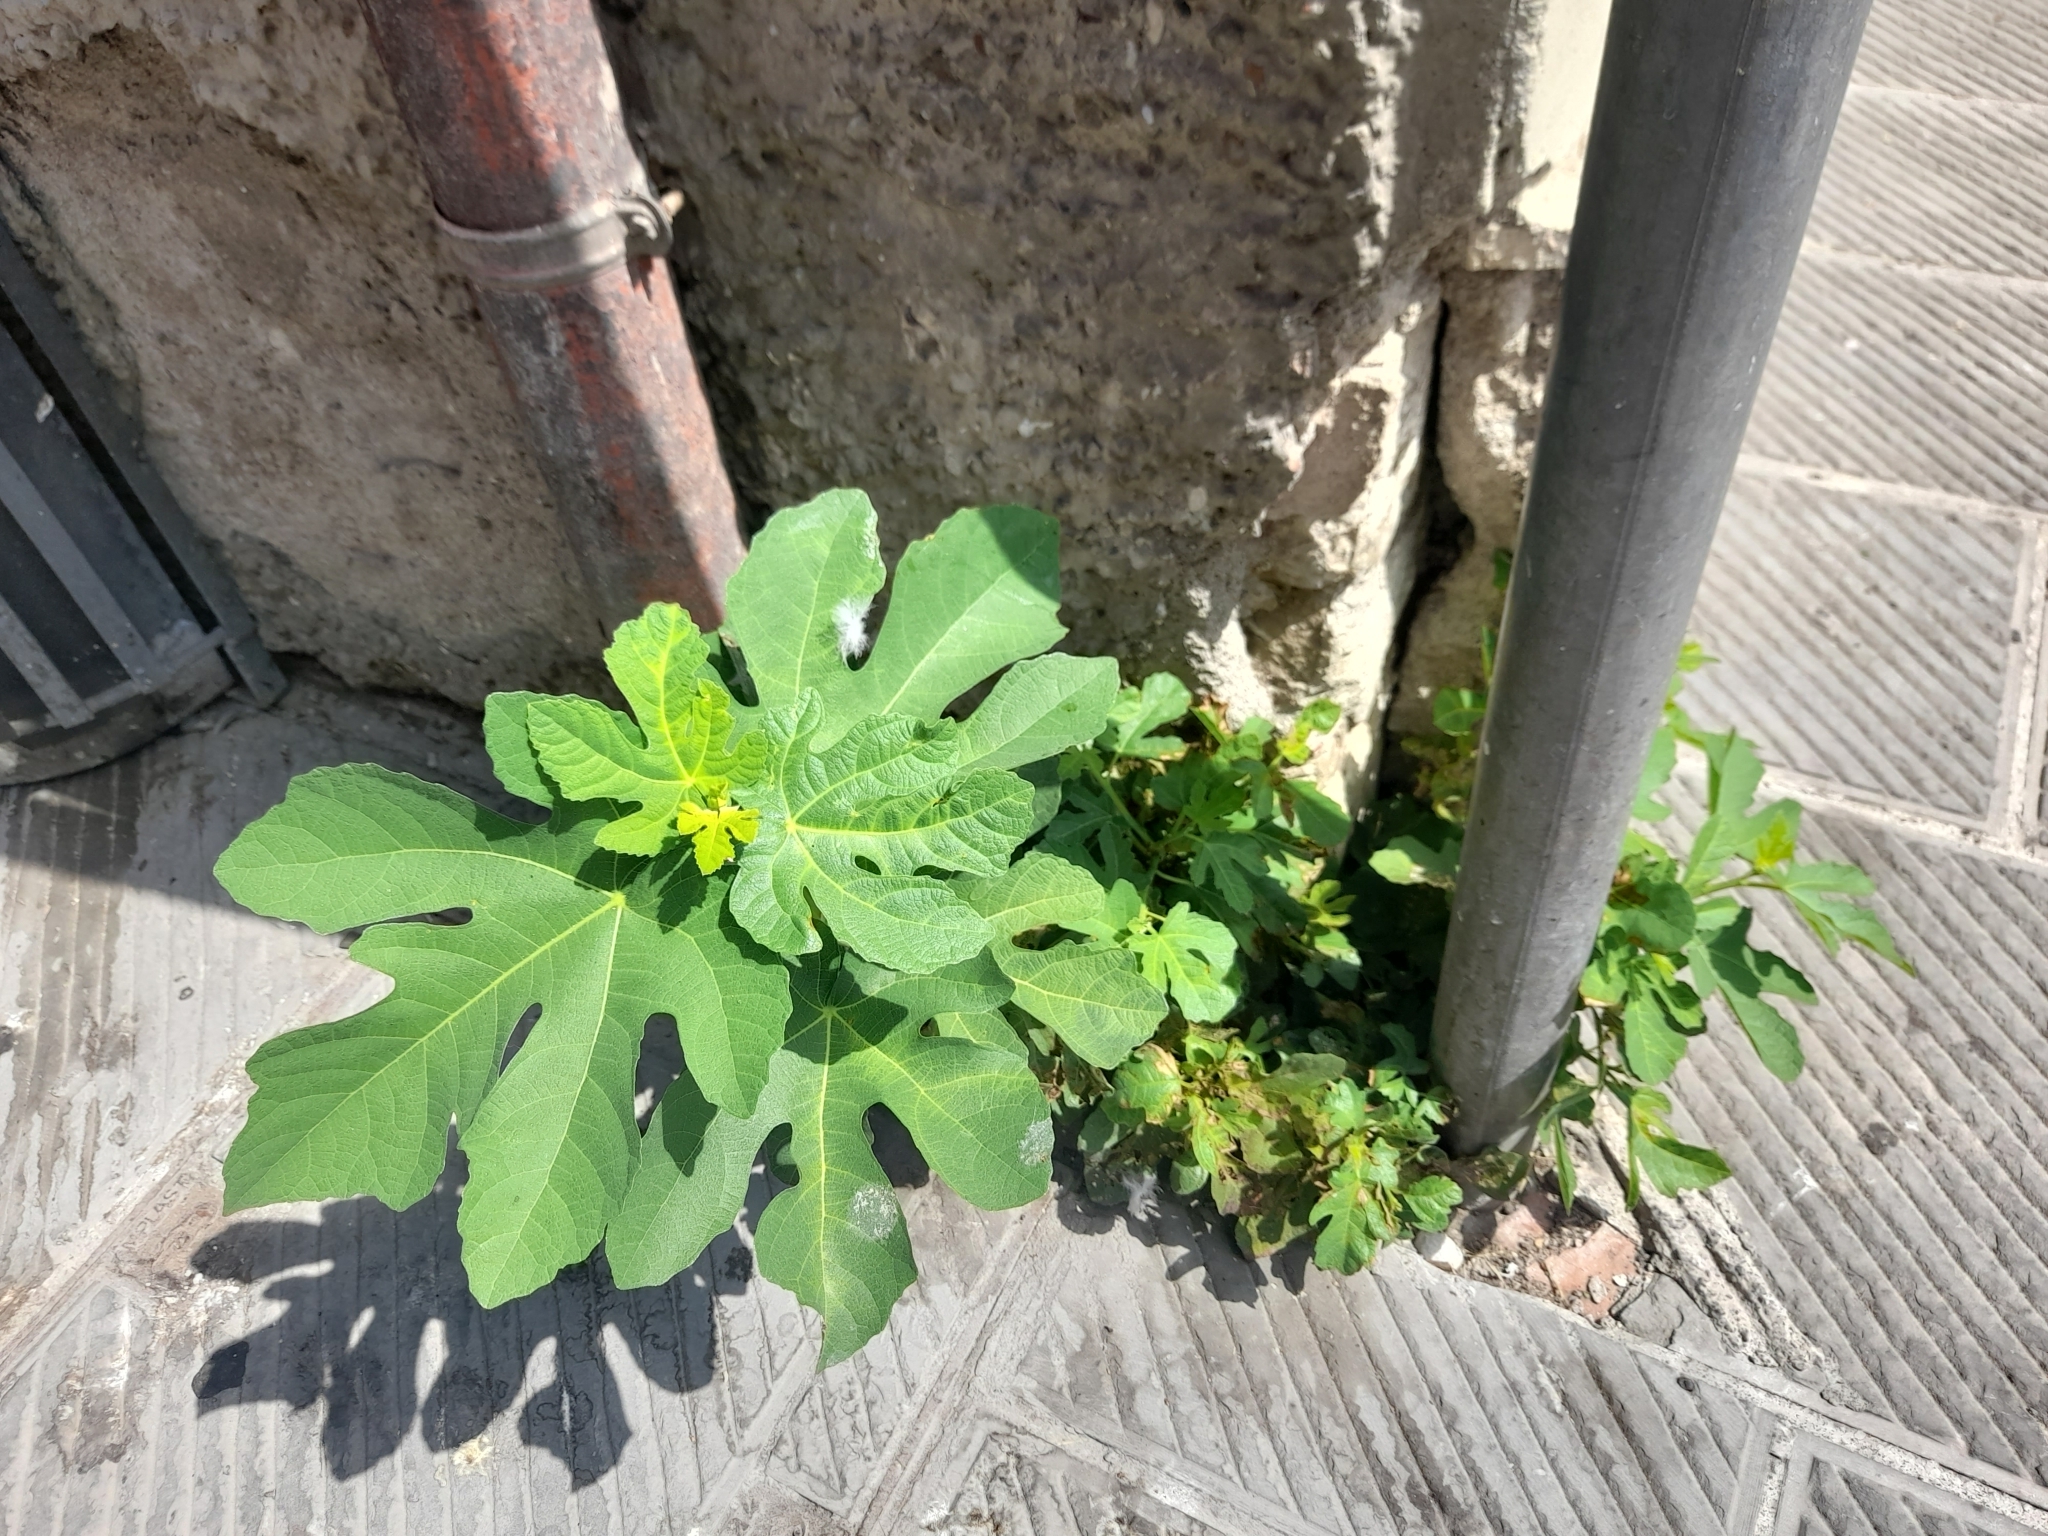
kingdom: Plantae
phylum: Tracheophyta
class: Magnoliopsida
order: Rosales
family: Moraceae
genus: Ficus
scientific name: Ficus carica
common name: Fig
